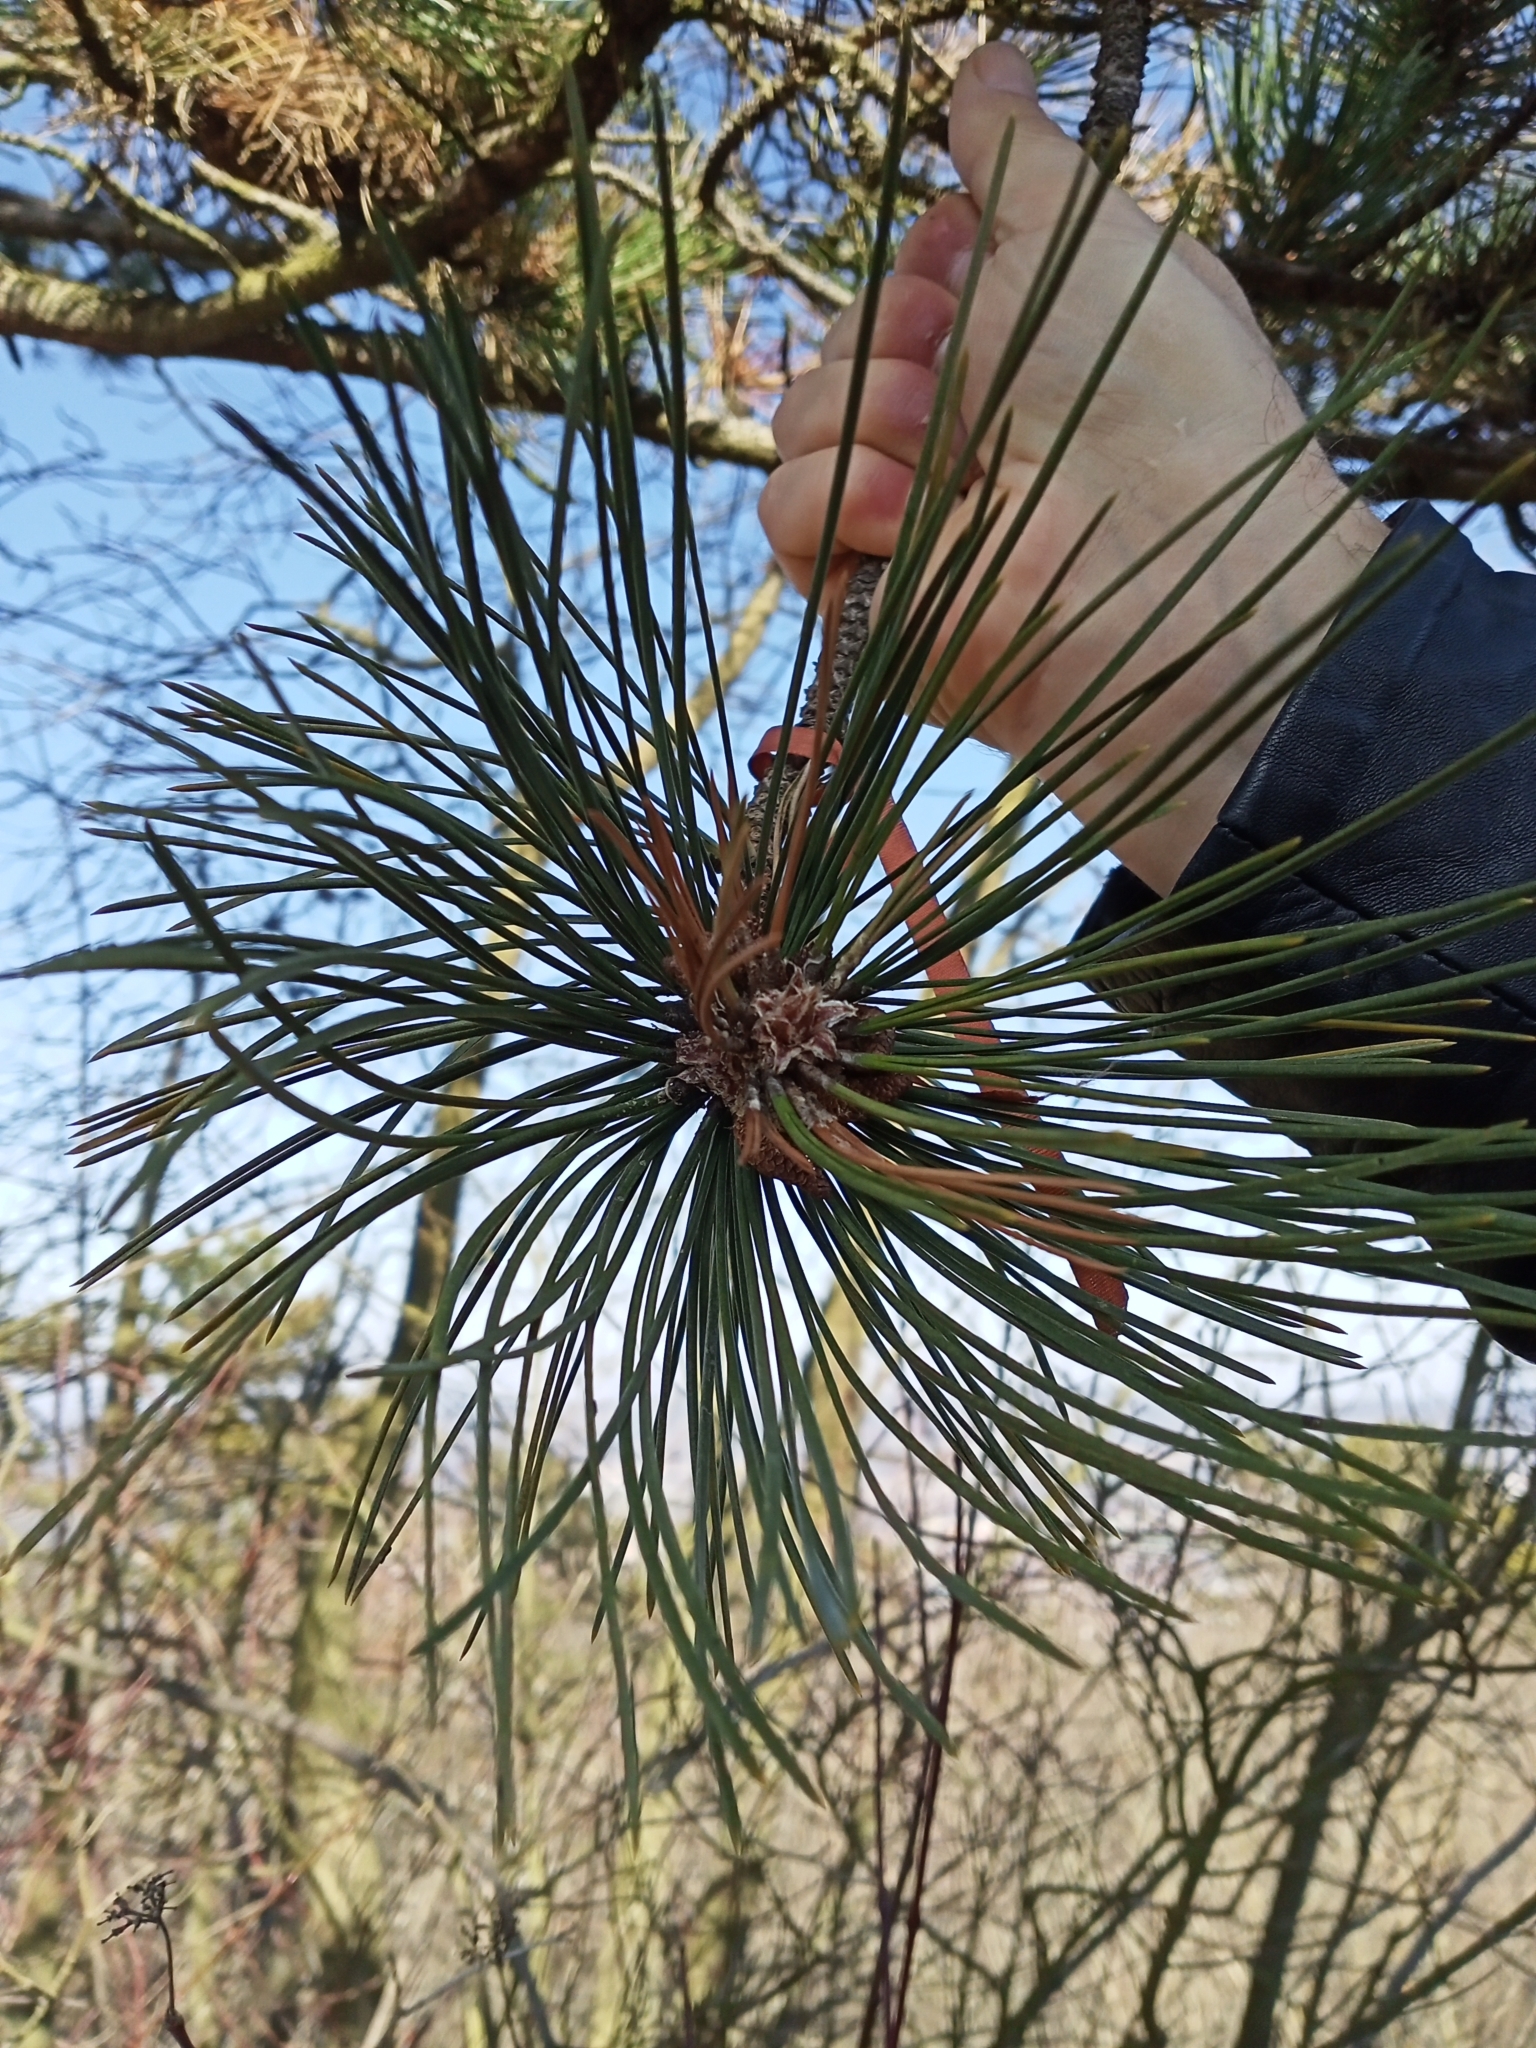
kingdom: Plantae
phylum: Tracheophyta
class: Pinopsida
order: Pinales
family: Pinaceae
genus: Pinus
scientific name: Pinus nigra
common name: Austrian pine
